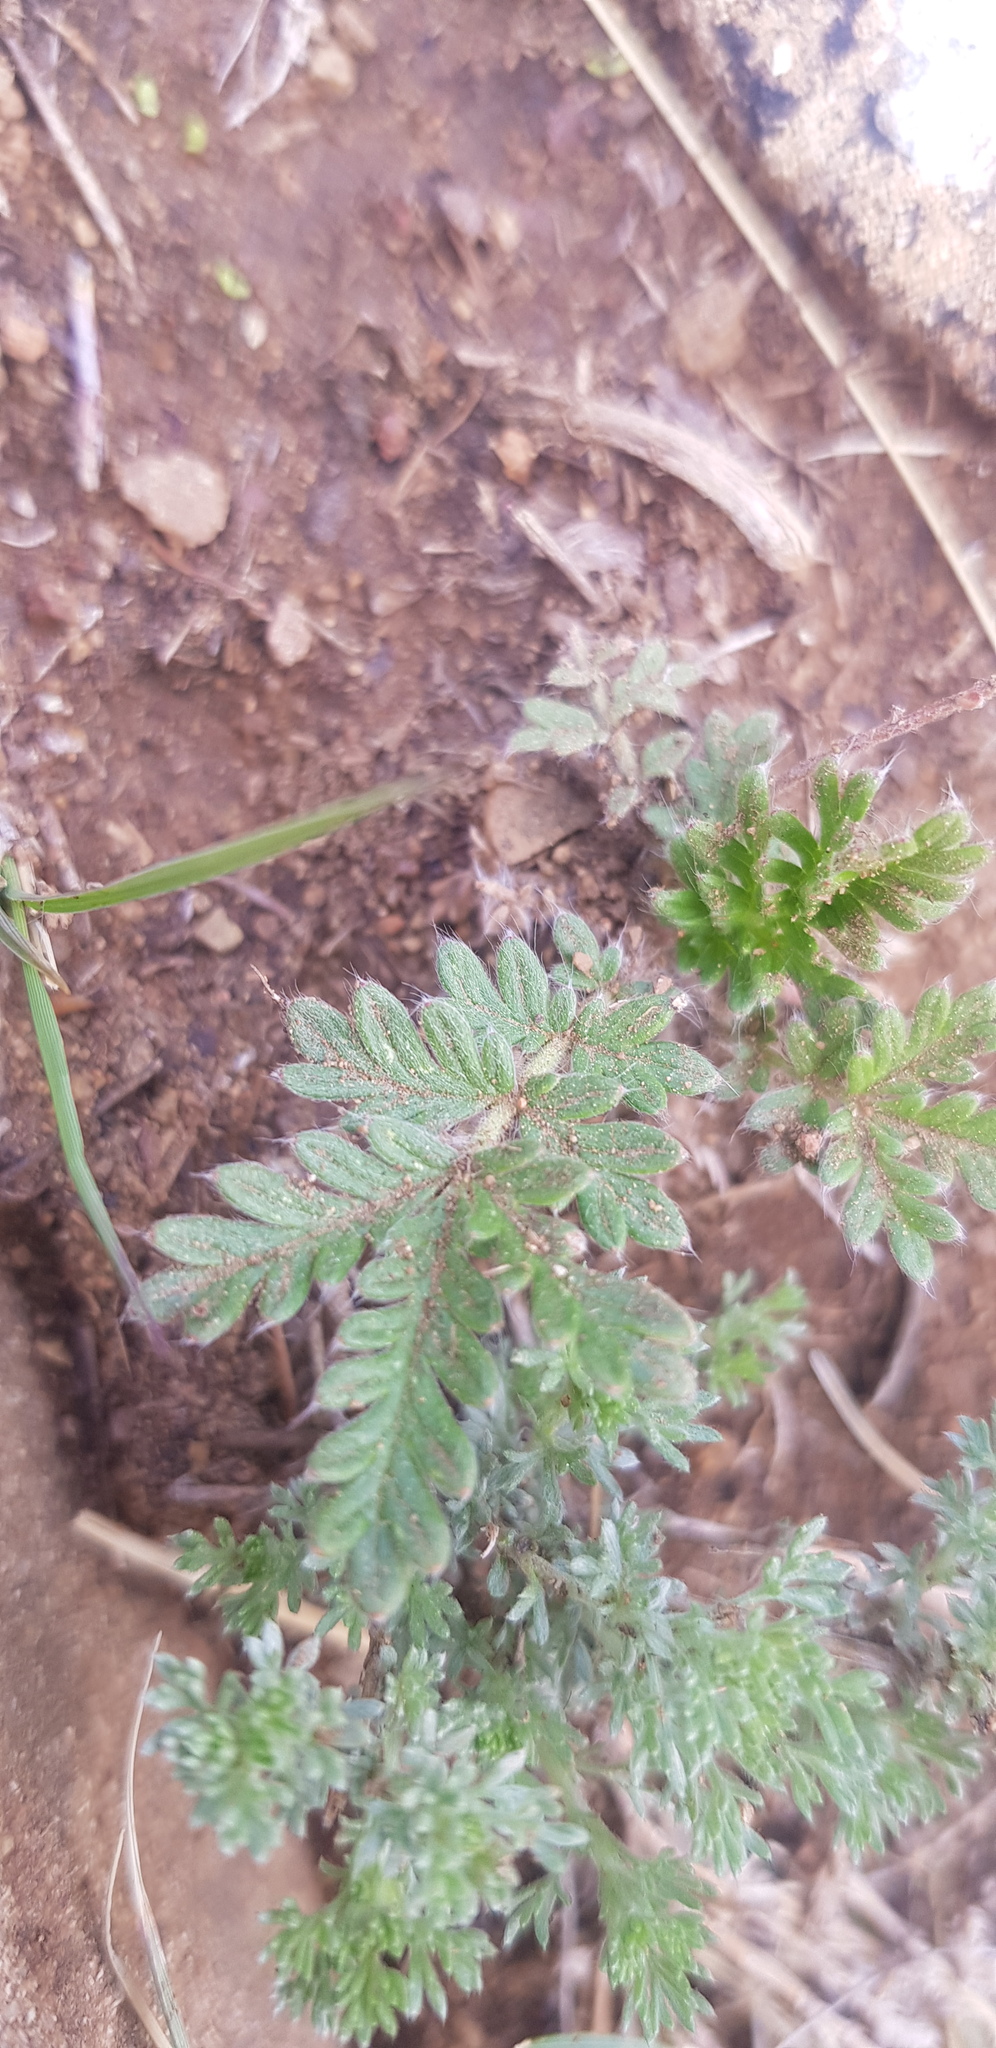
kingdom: Plantae
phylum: Tracheophyta
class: Magnoliopsida
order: Rosales
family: Rosaceae
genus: Potentilla
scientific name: Potentilla sericea
